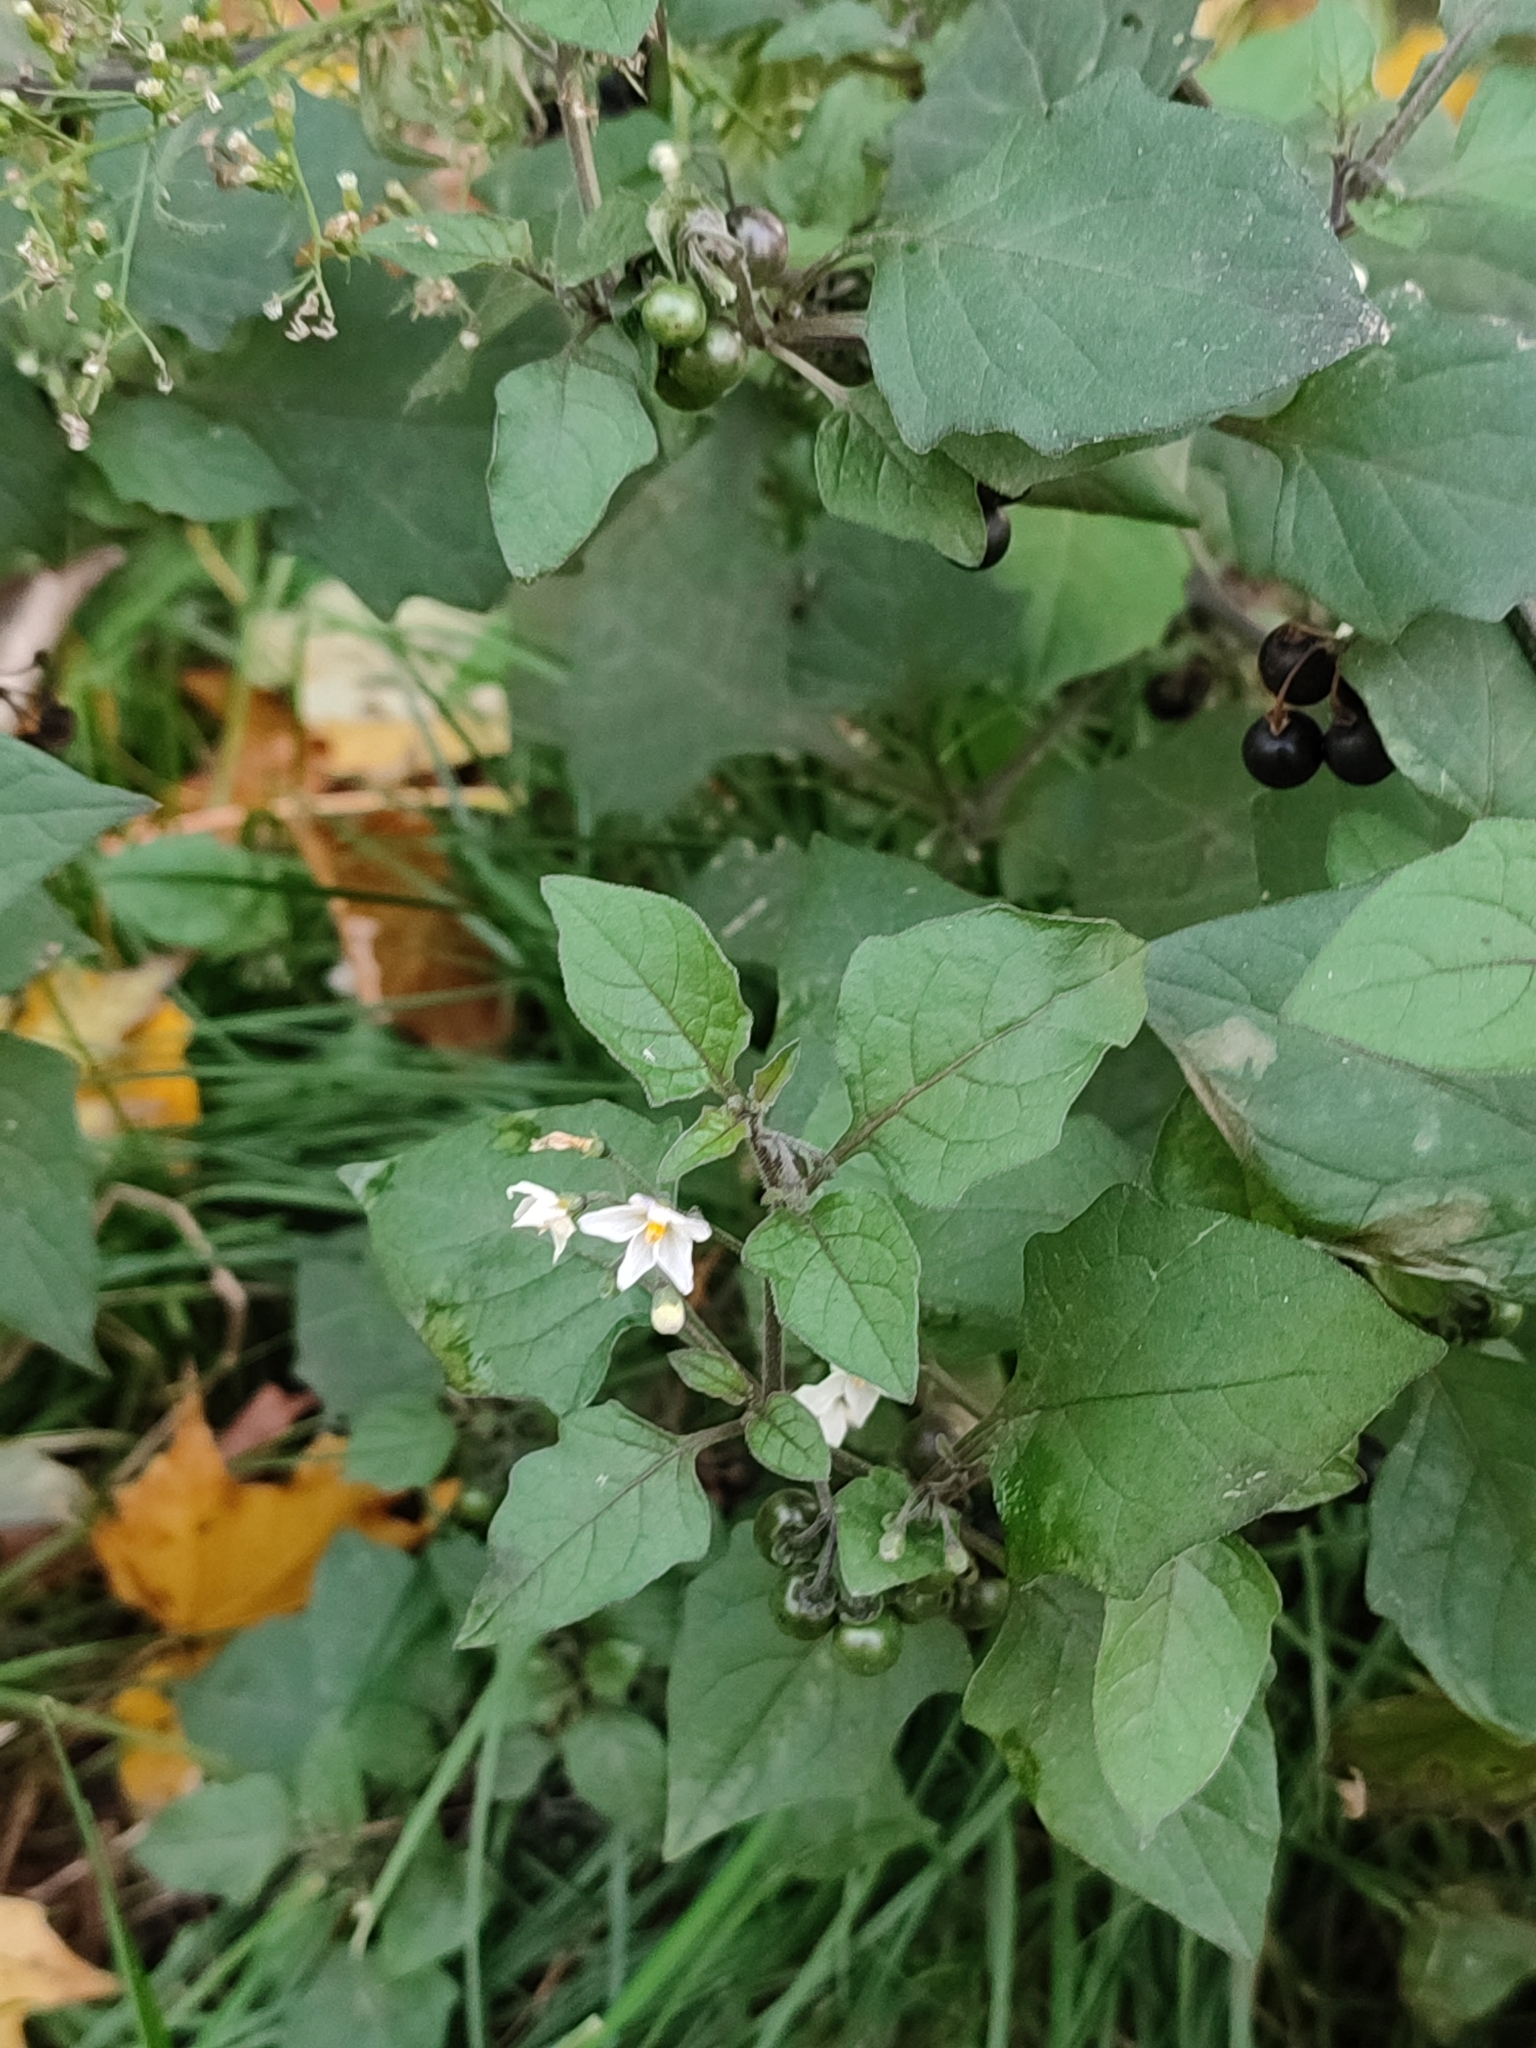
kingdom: Plantae
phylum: Tracheophyta
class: Magnoliopsida
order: Solanales
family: Solanaceae
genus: Solanum
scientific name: Solanum nigrum
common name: Black nightshade
